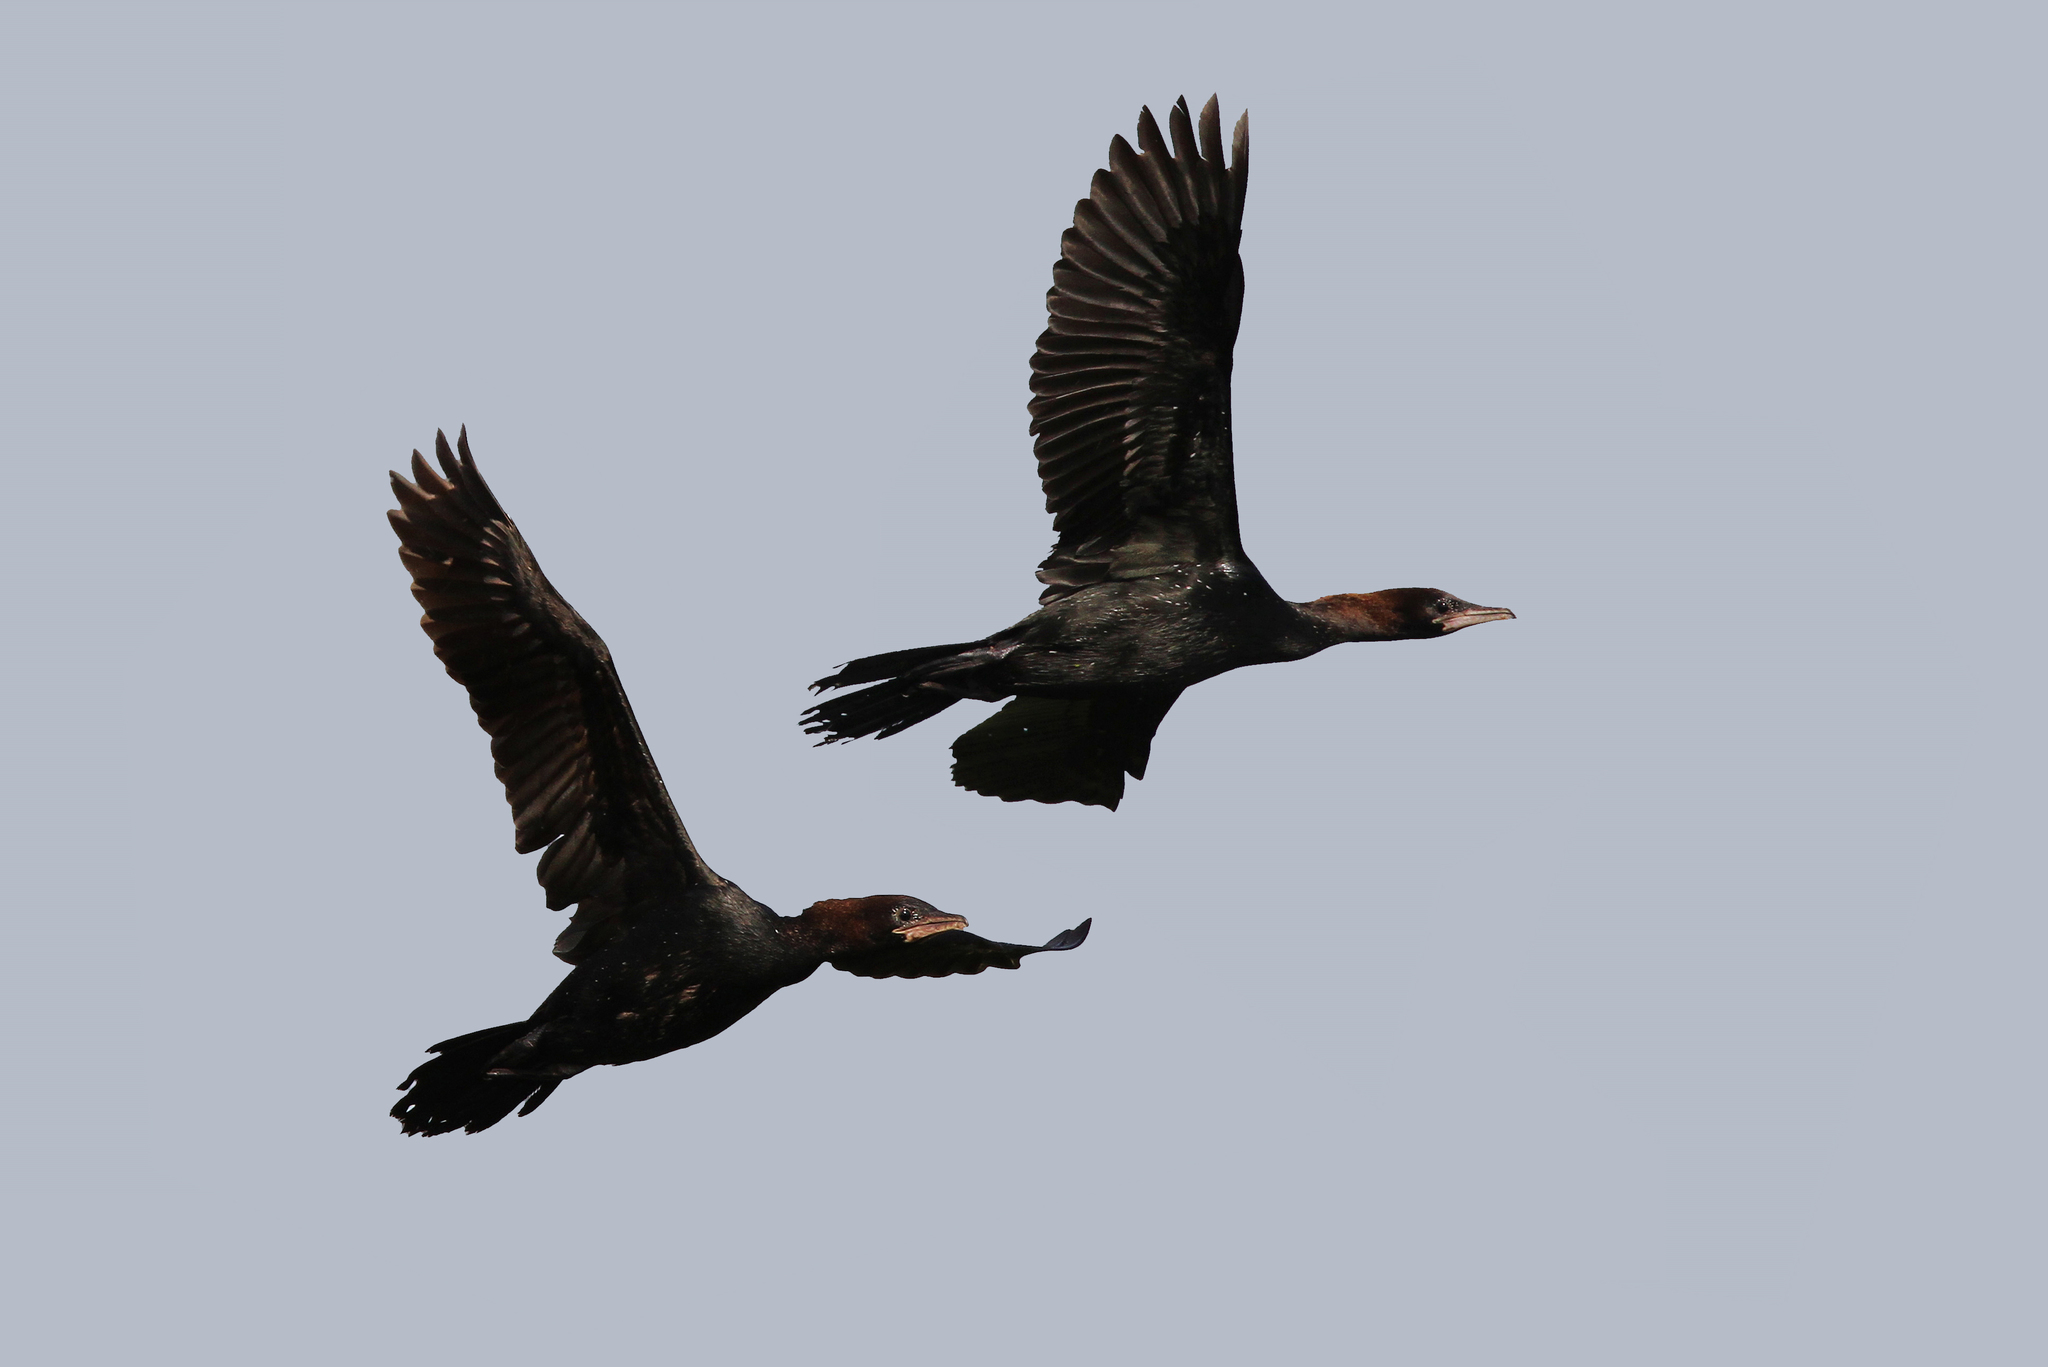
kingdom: Animalia
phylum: Chordata
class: Aves
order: Suliformes
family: Phalacrocoracidae
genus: Microcarbo
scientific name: Microcarbo pygmaeus
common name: Pygmy cormorant
